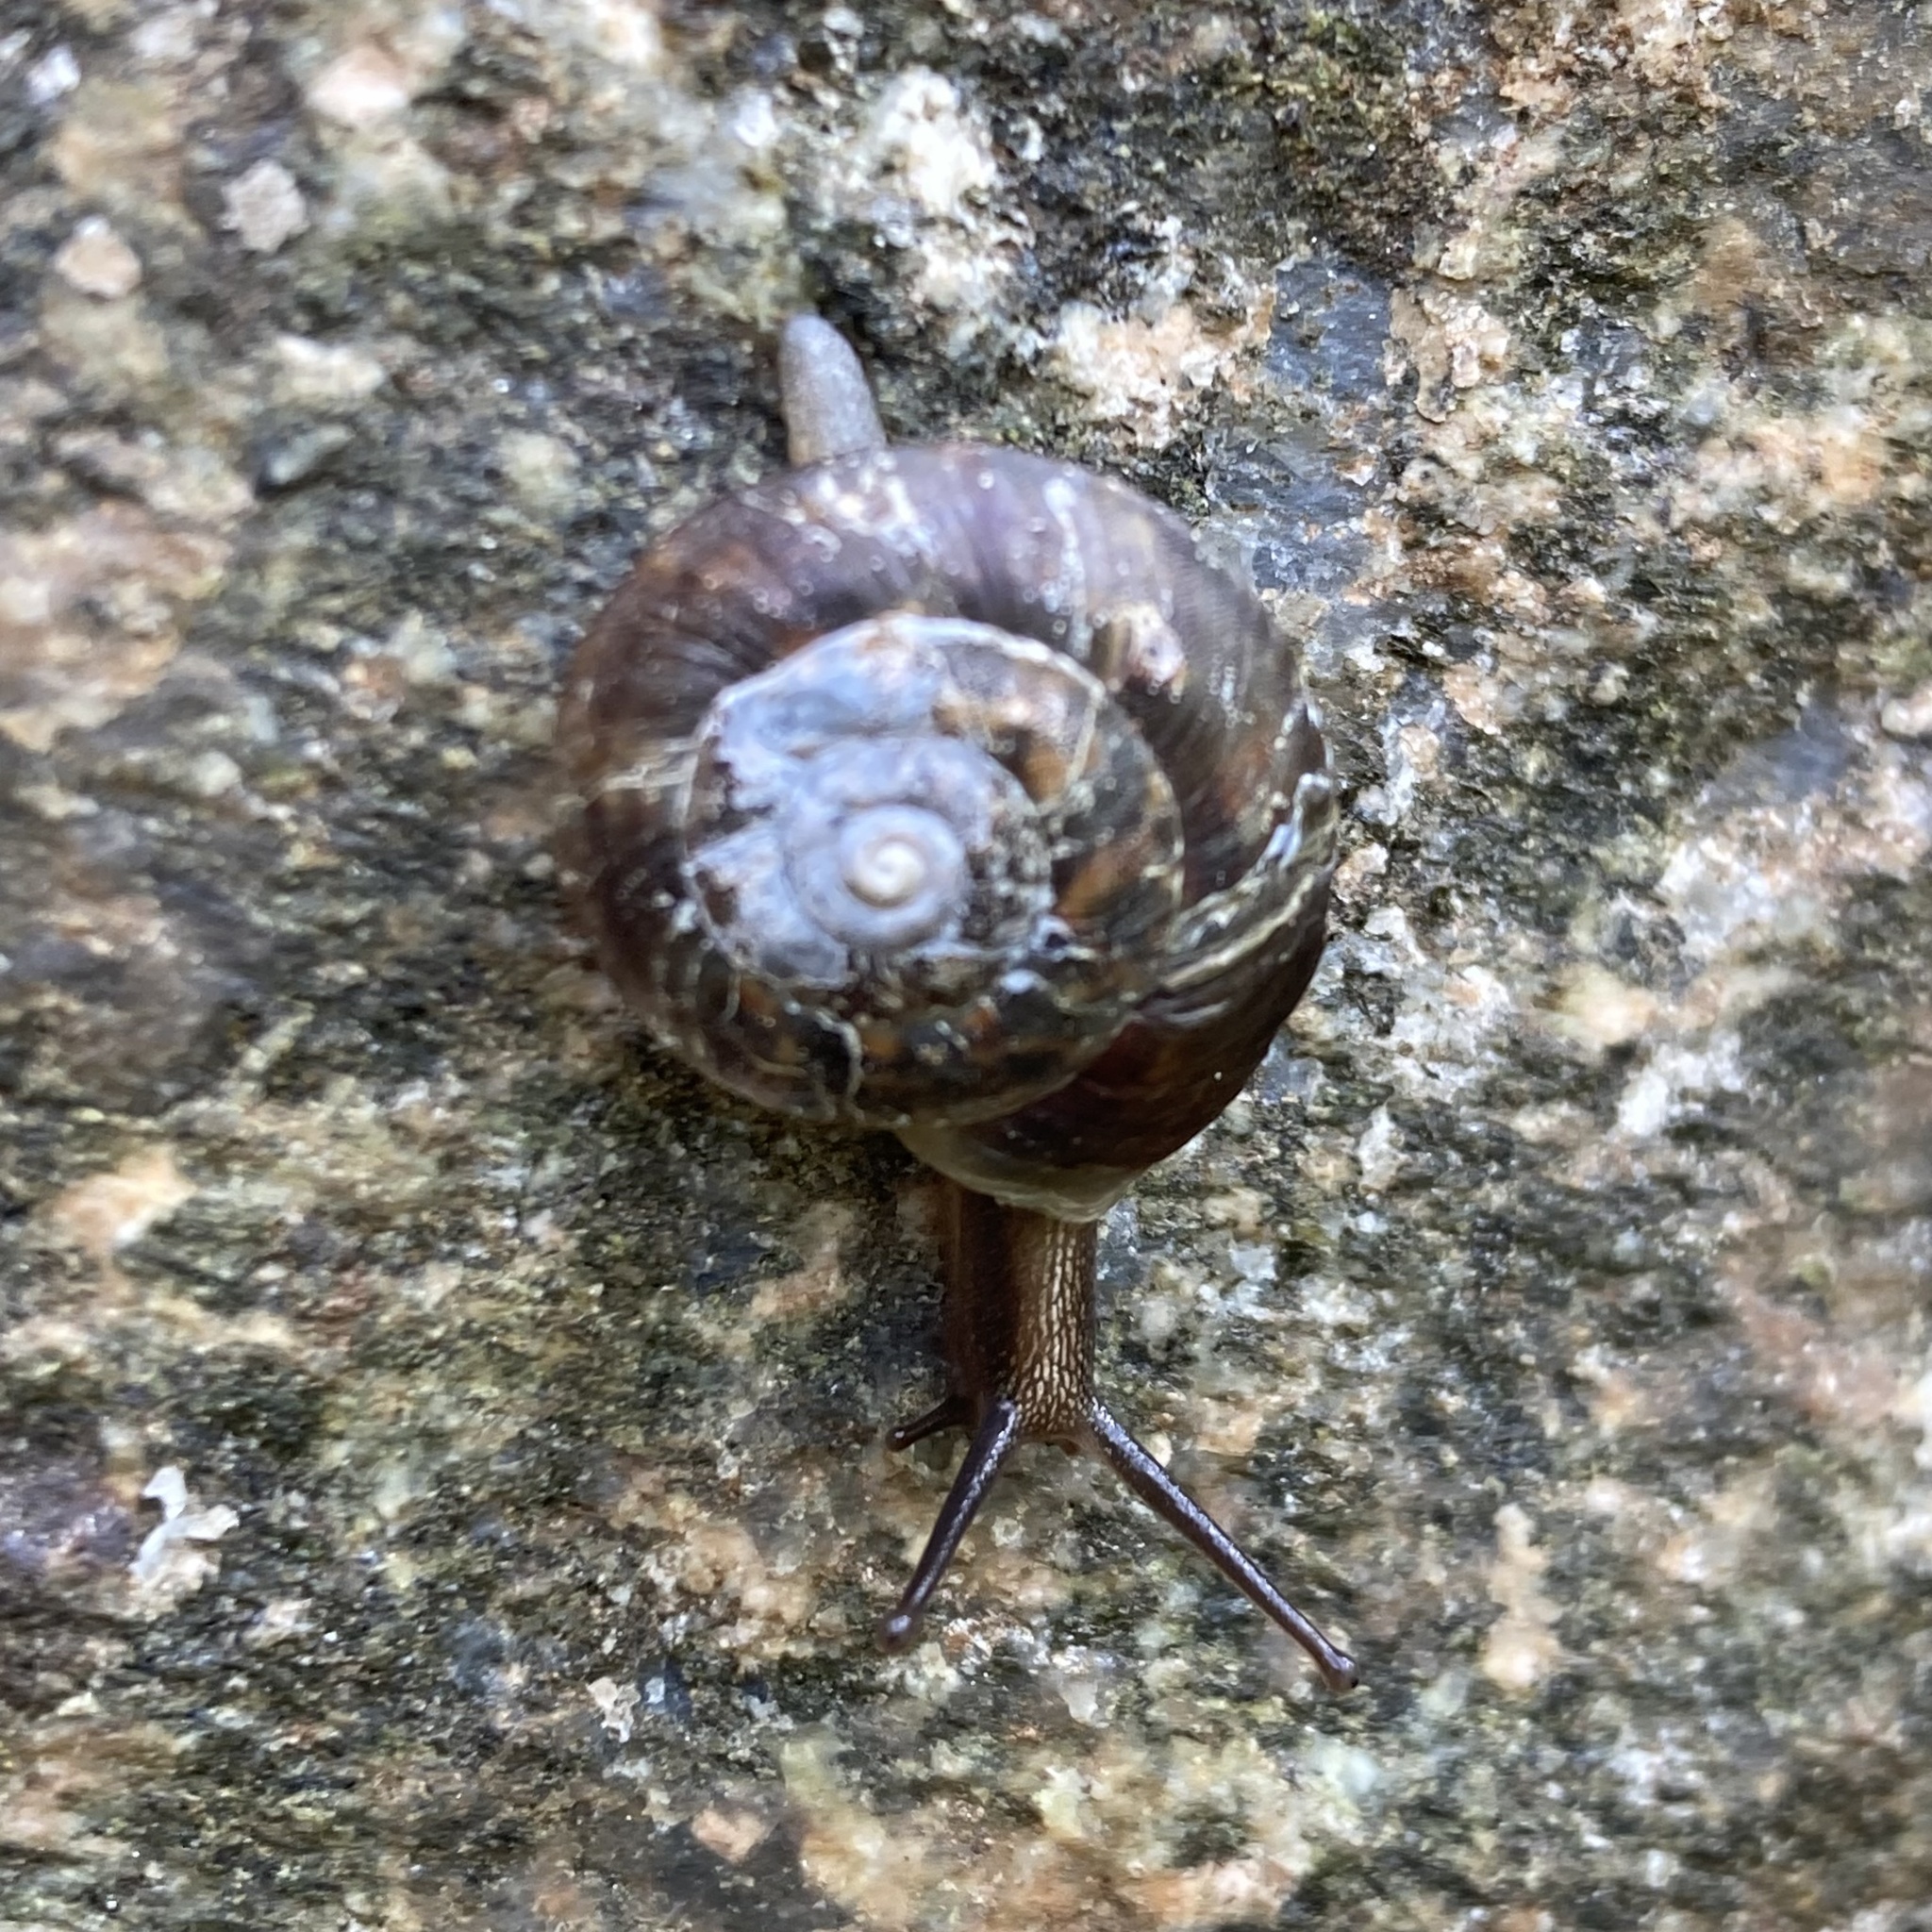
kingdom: Animalia
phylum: Mollusca
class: Gastropoda
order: Stylommatophora
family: Helicidae
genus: Helicigona
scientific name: Helicigona lapicida
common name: Lapidary snail
